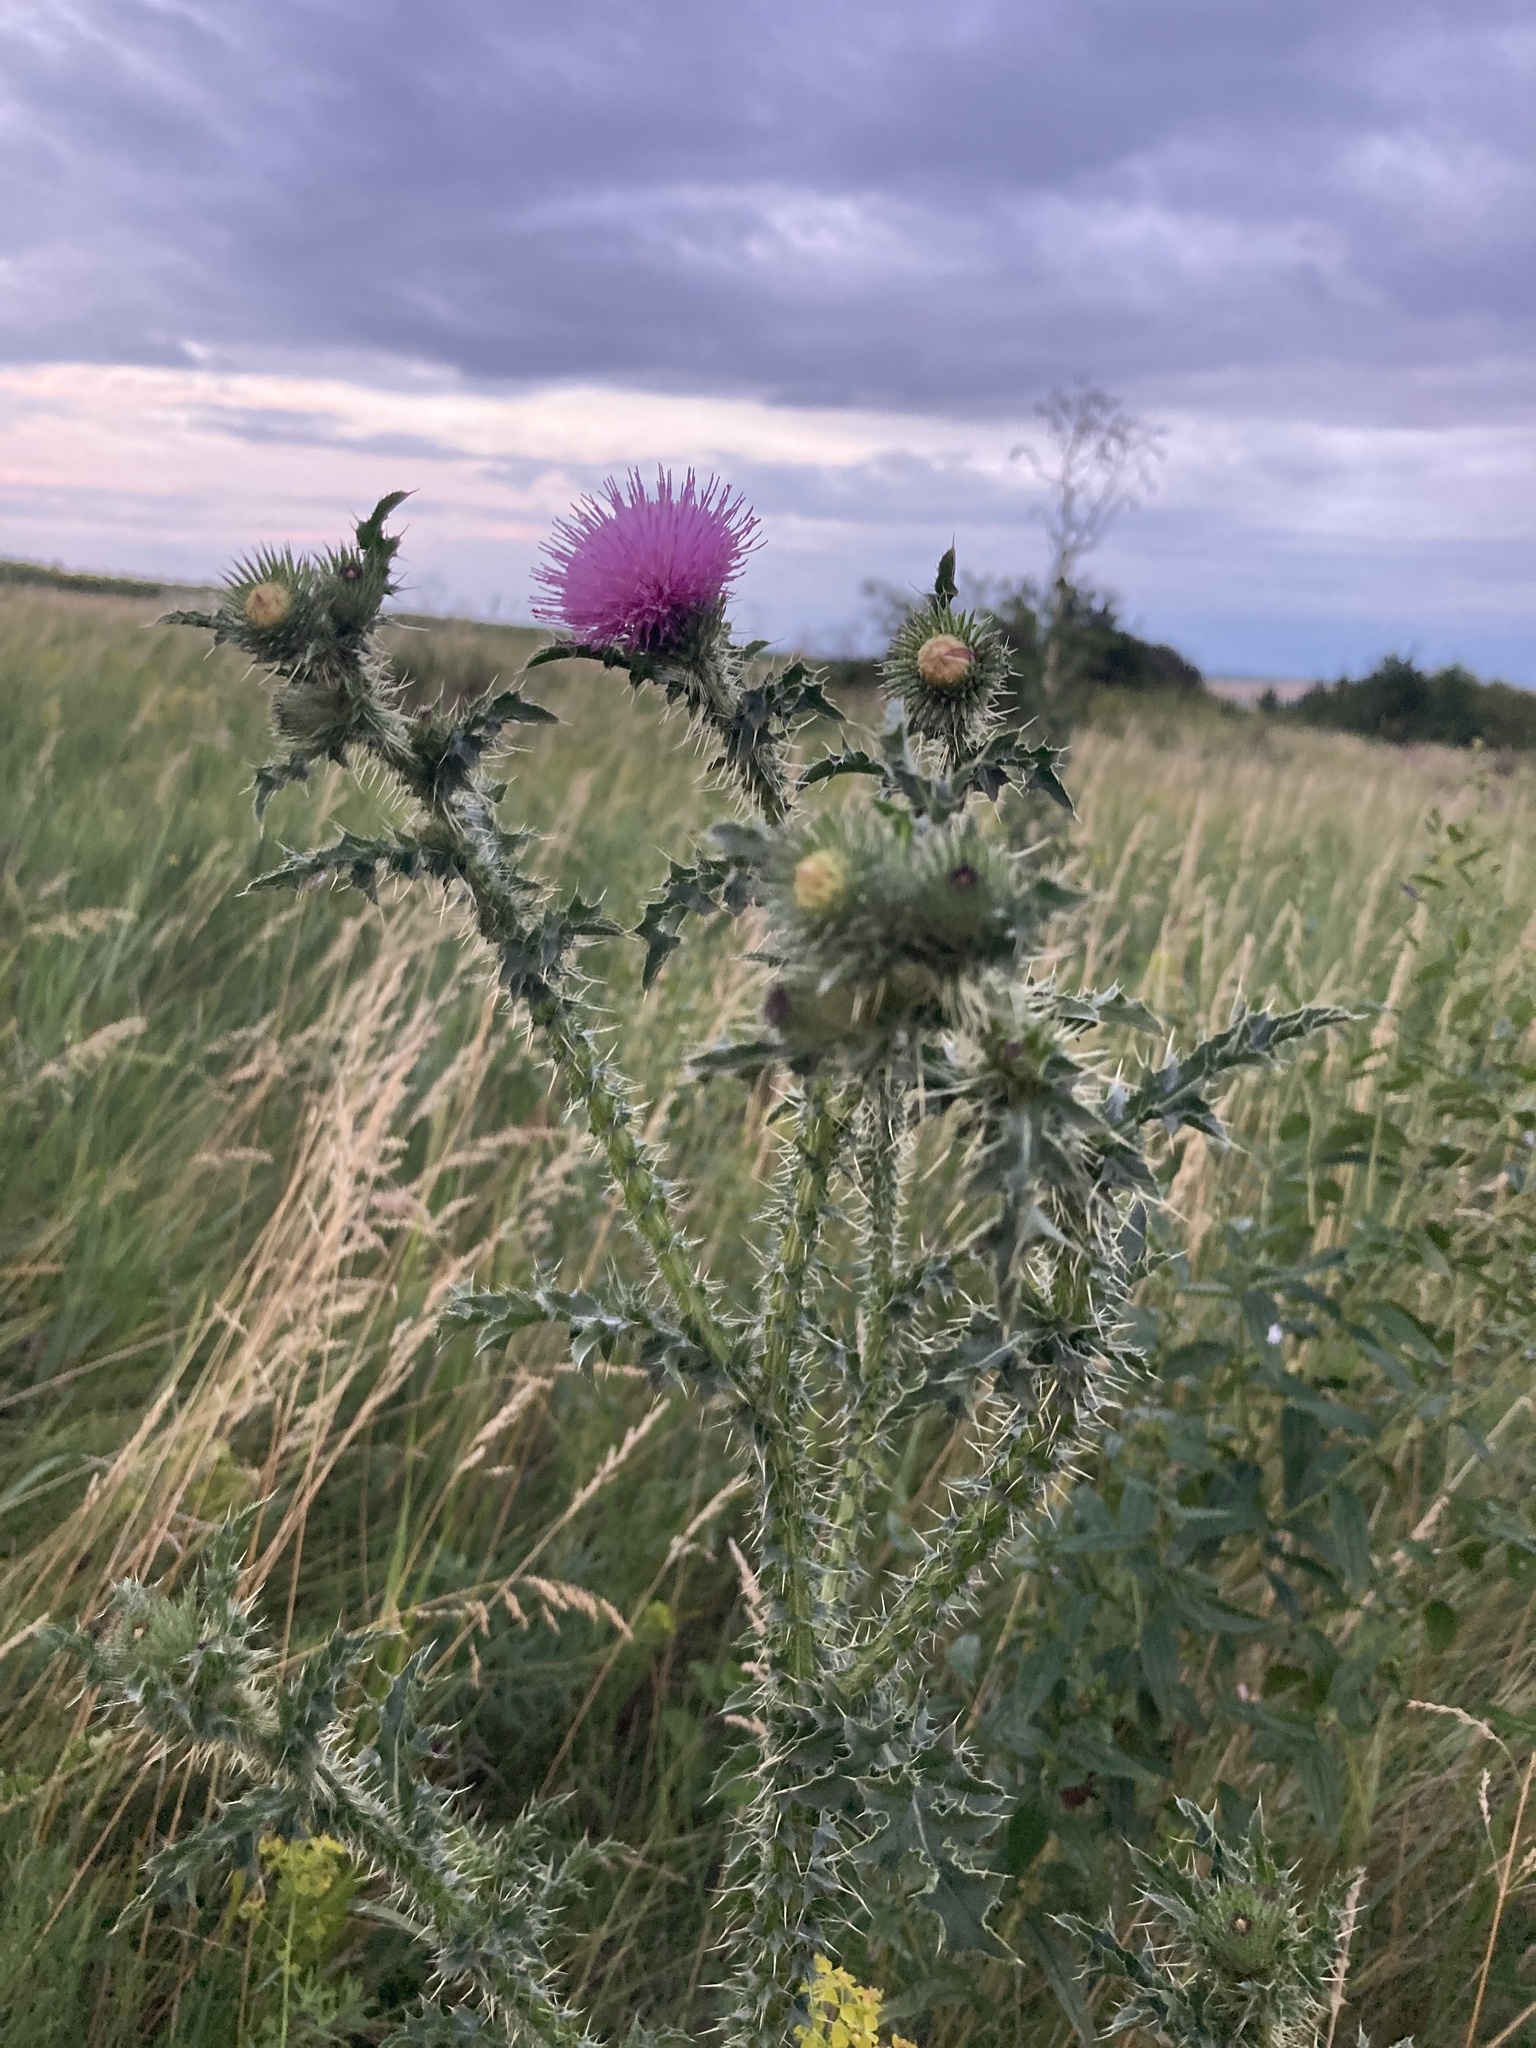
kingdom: Plantae
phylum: Tracheophyta
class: Magnoliopsida
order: Asterales
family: Asteraceae
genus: Carduus
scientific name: Carduus acanthoides
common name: Plumeless thistle
